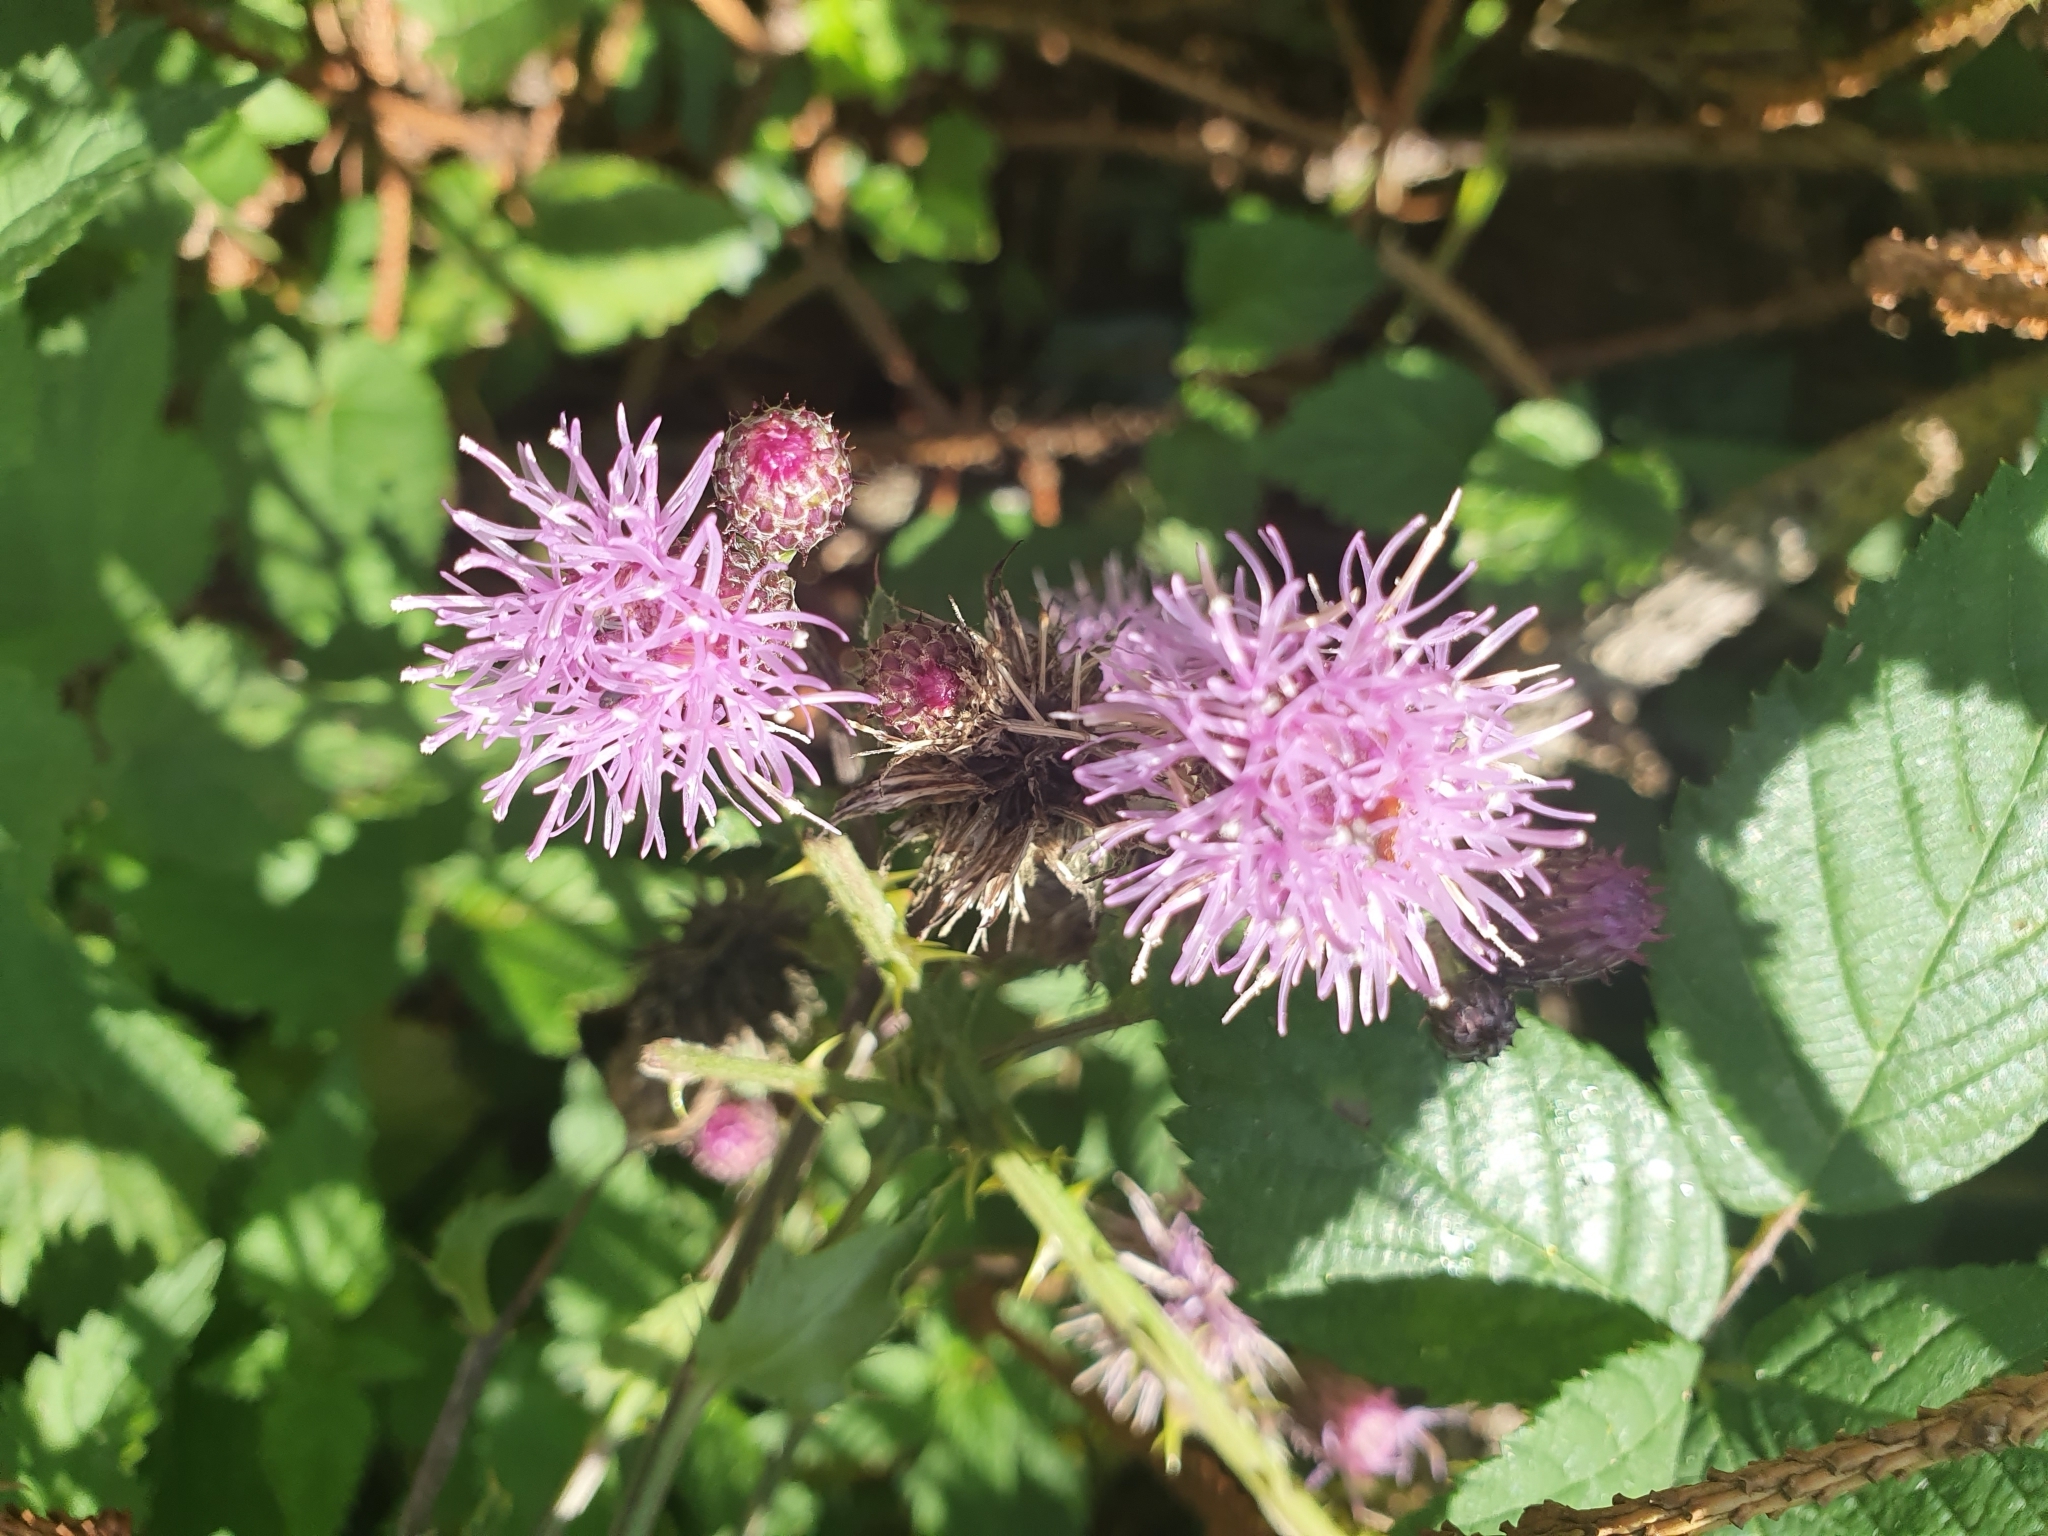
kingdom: Plantae
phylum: Tracheophyta
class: Magnoliopsida
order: Asterales
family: Asteraceae
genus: Cirsium
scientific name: Cirsium arvense
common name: Creeping thistle
